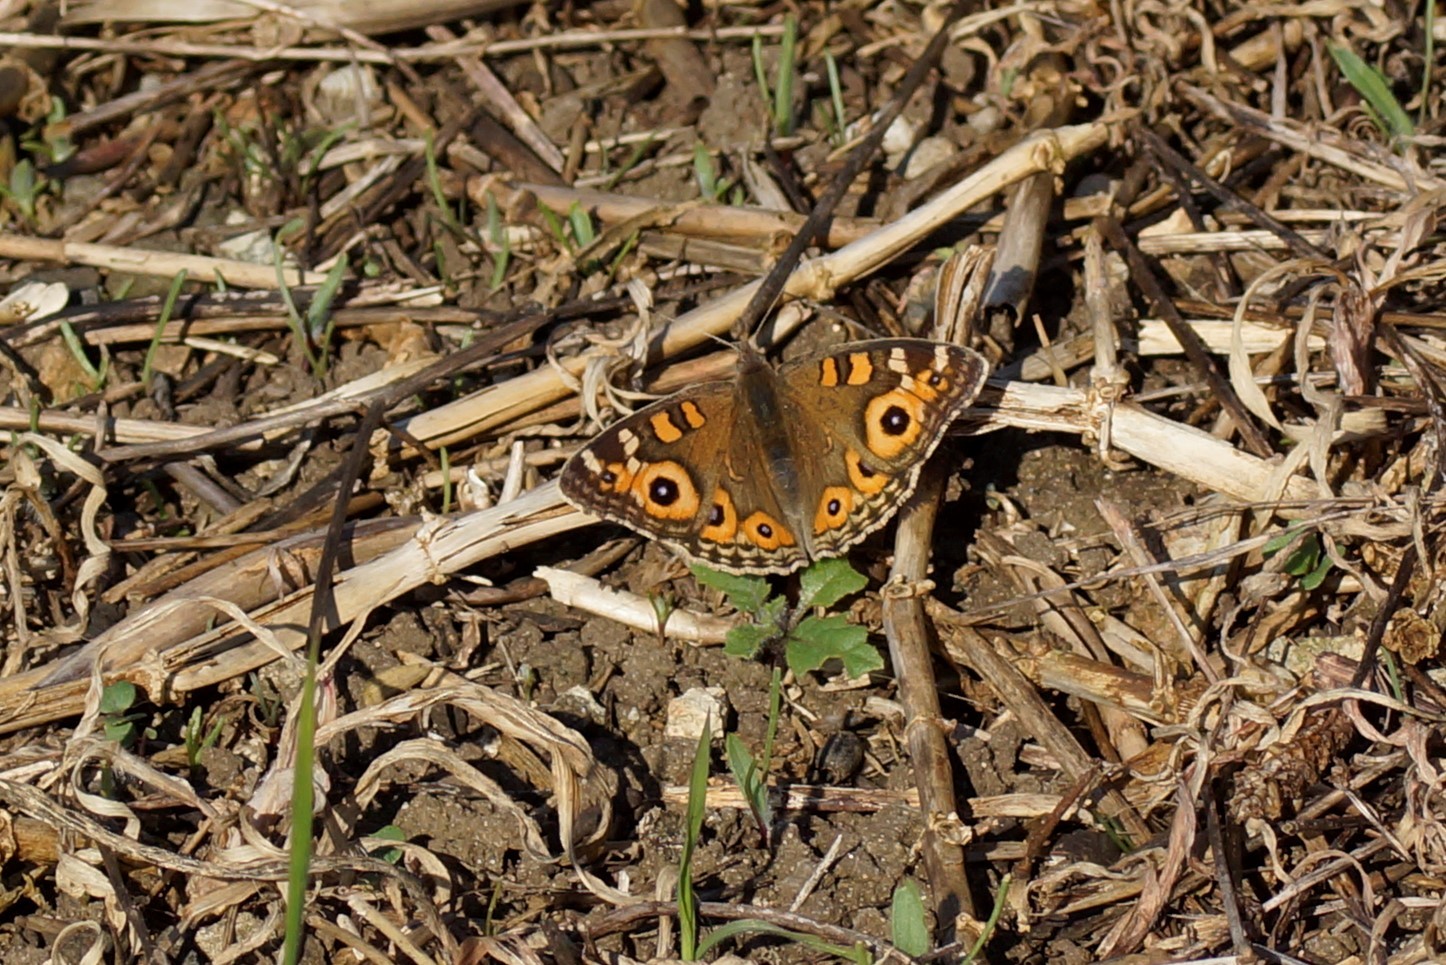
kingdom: Animalia
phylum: Arthropoda
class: Insecta
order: Lepidoptera
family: Nymphalidae
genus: Junonia
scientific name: Junonia villida
